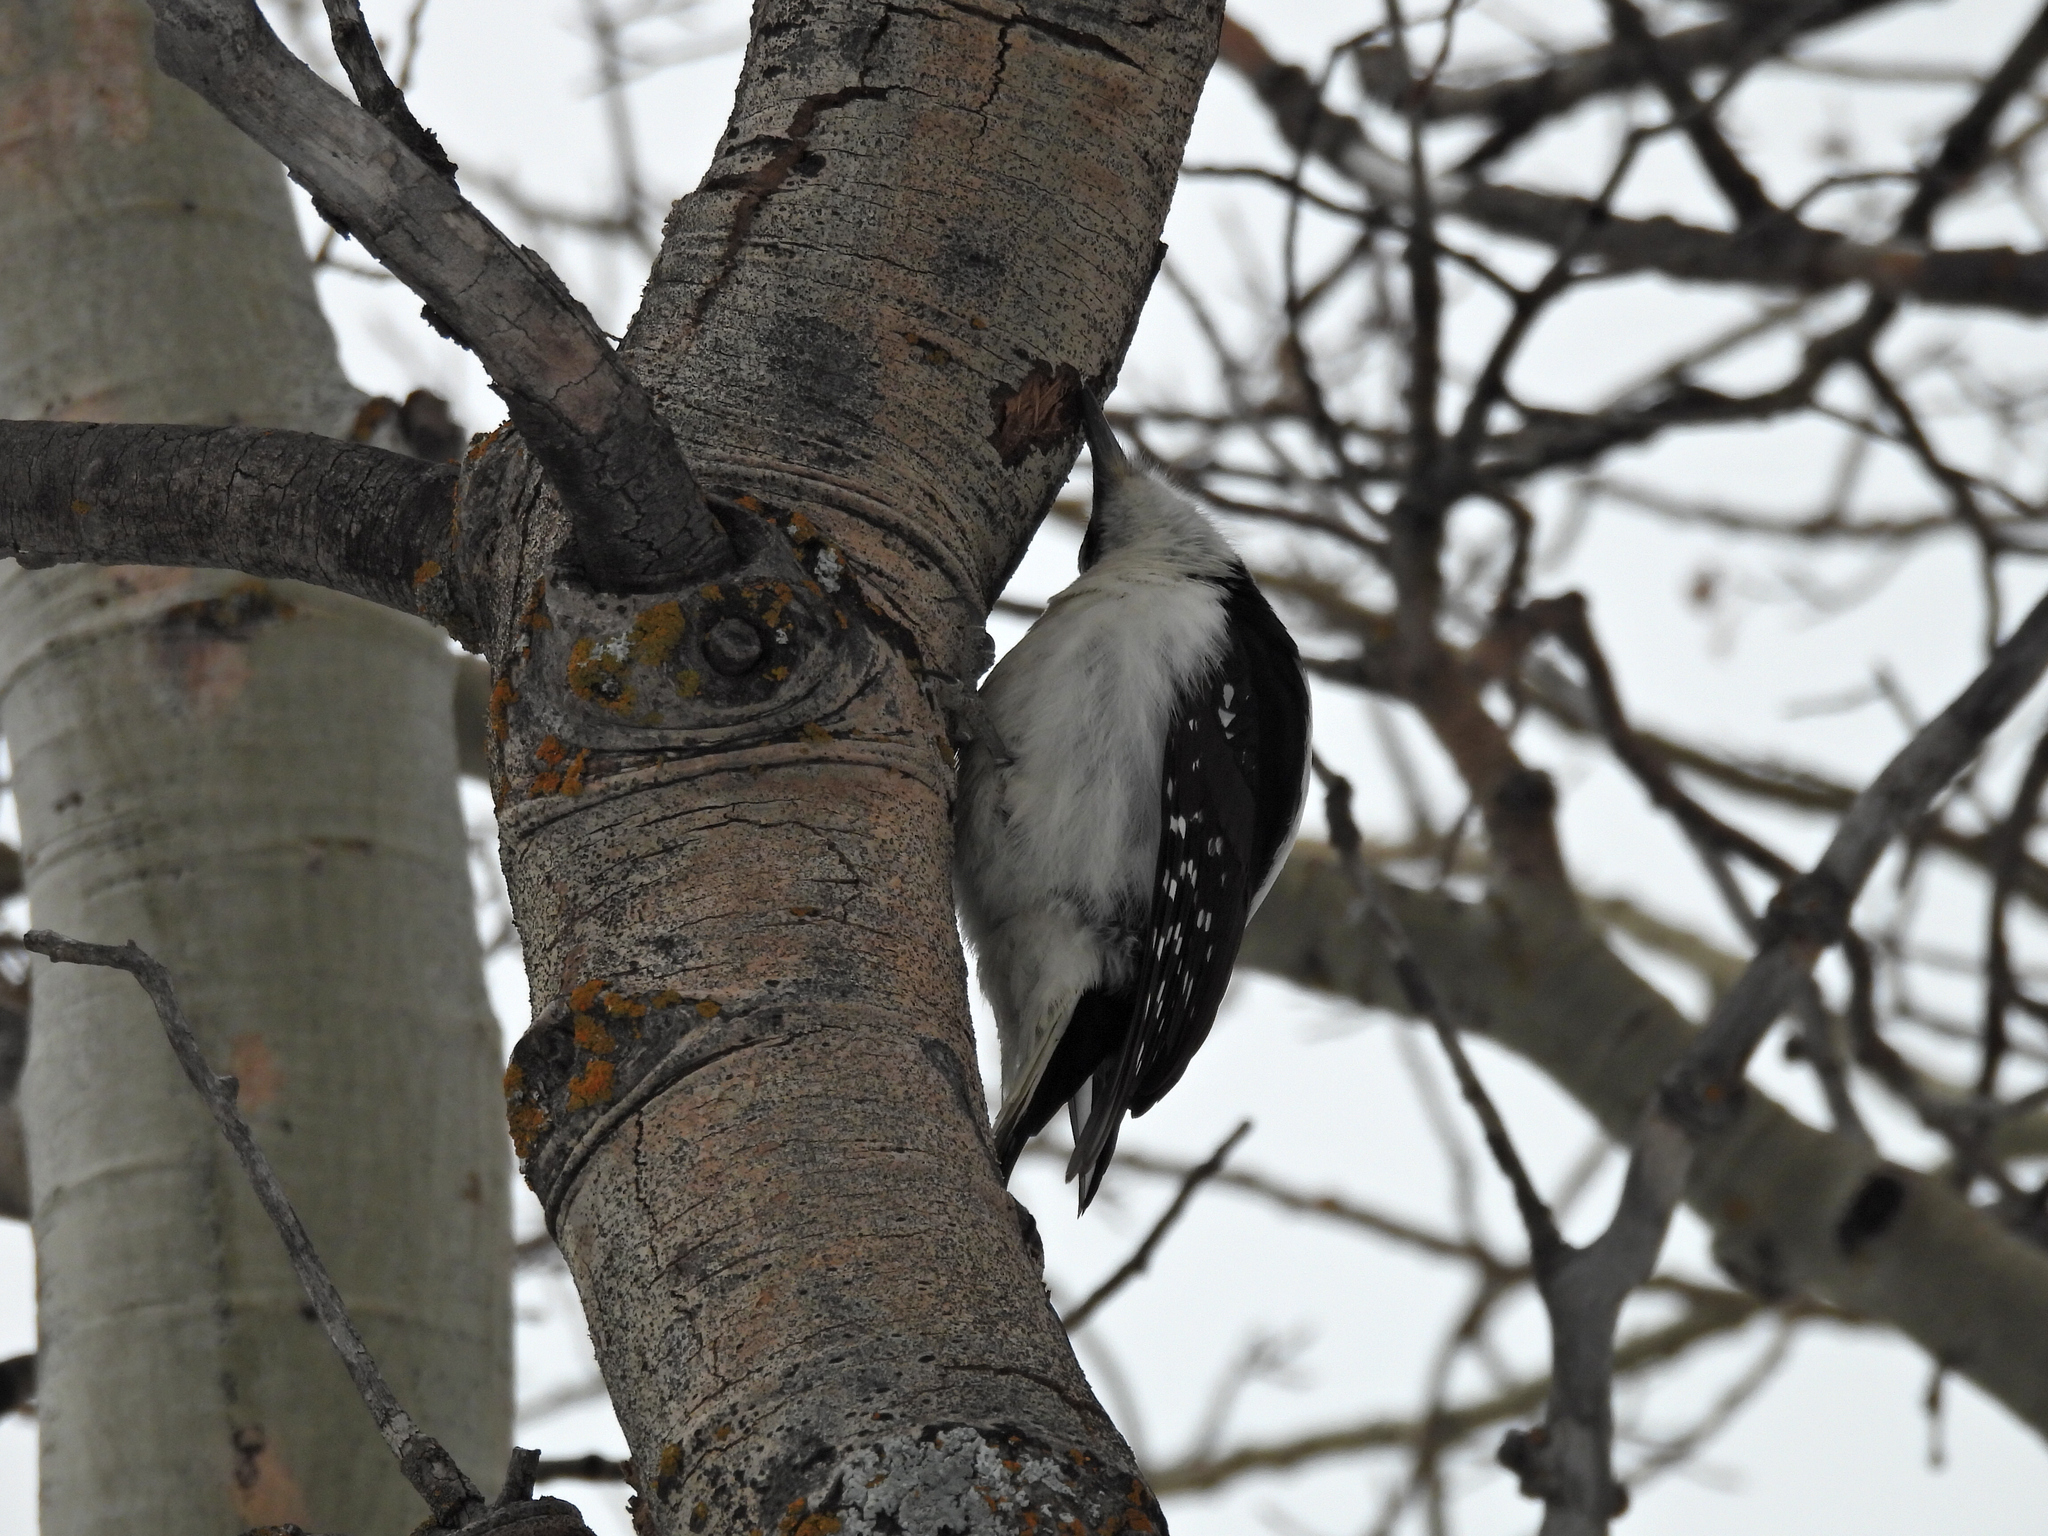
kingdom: Animalia
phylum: Chordata
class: Aves
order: Piciformes
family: Picidae
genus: Leuconotopicus
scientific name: Leuconotopicus villosus
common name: Hairy woodpecker
